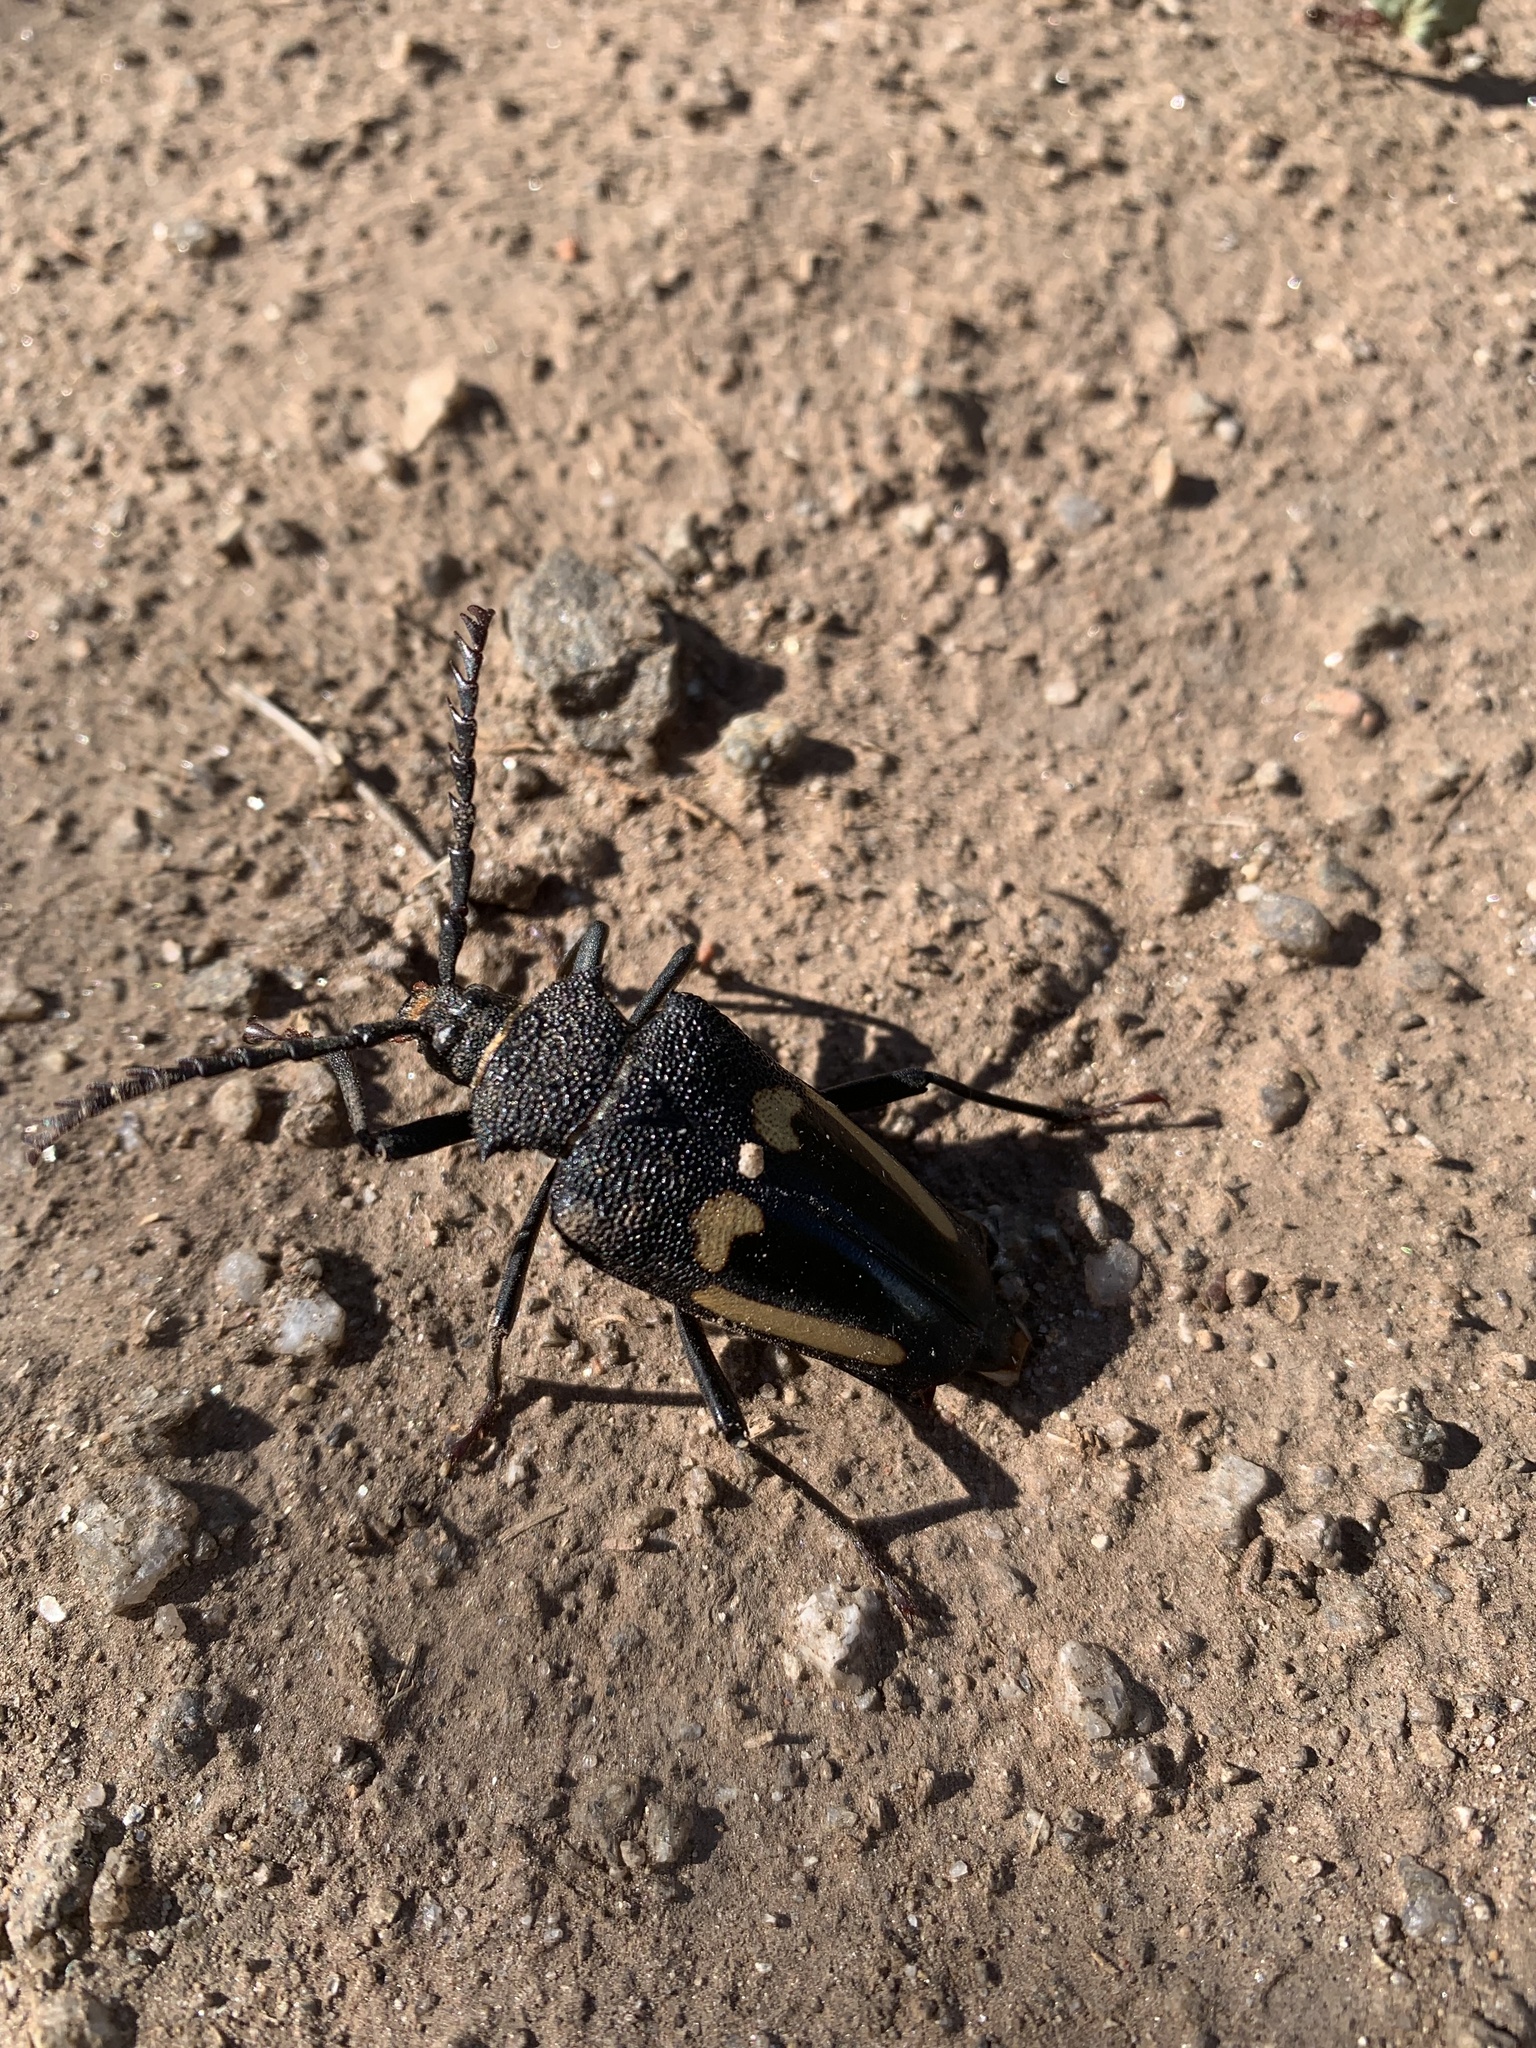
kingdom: Animalia
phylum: Arthropoda
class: Insecta
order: Coleoptera
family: Cerambycidae
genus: Calocomus
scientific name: Calocomus desmarestii
